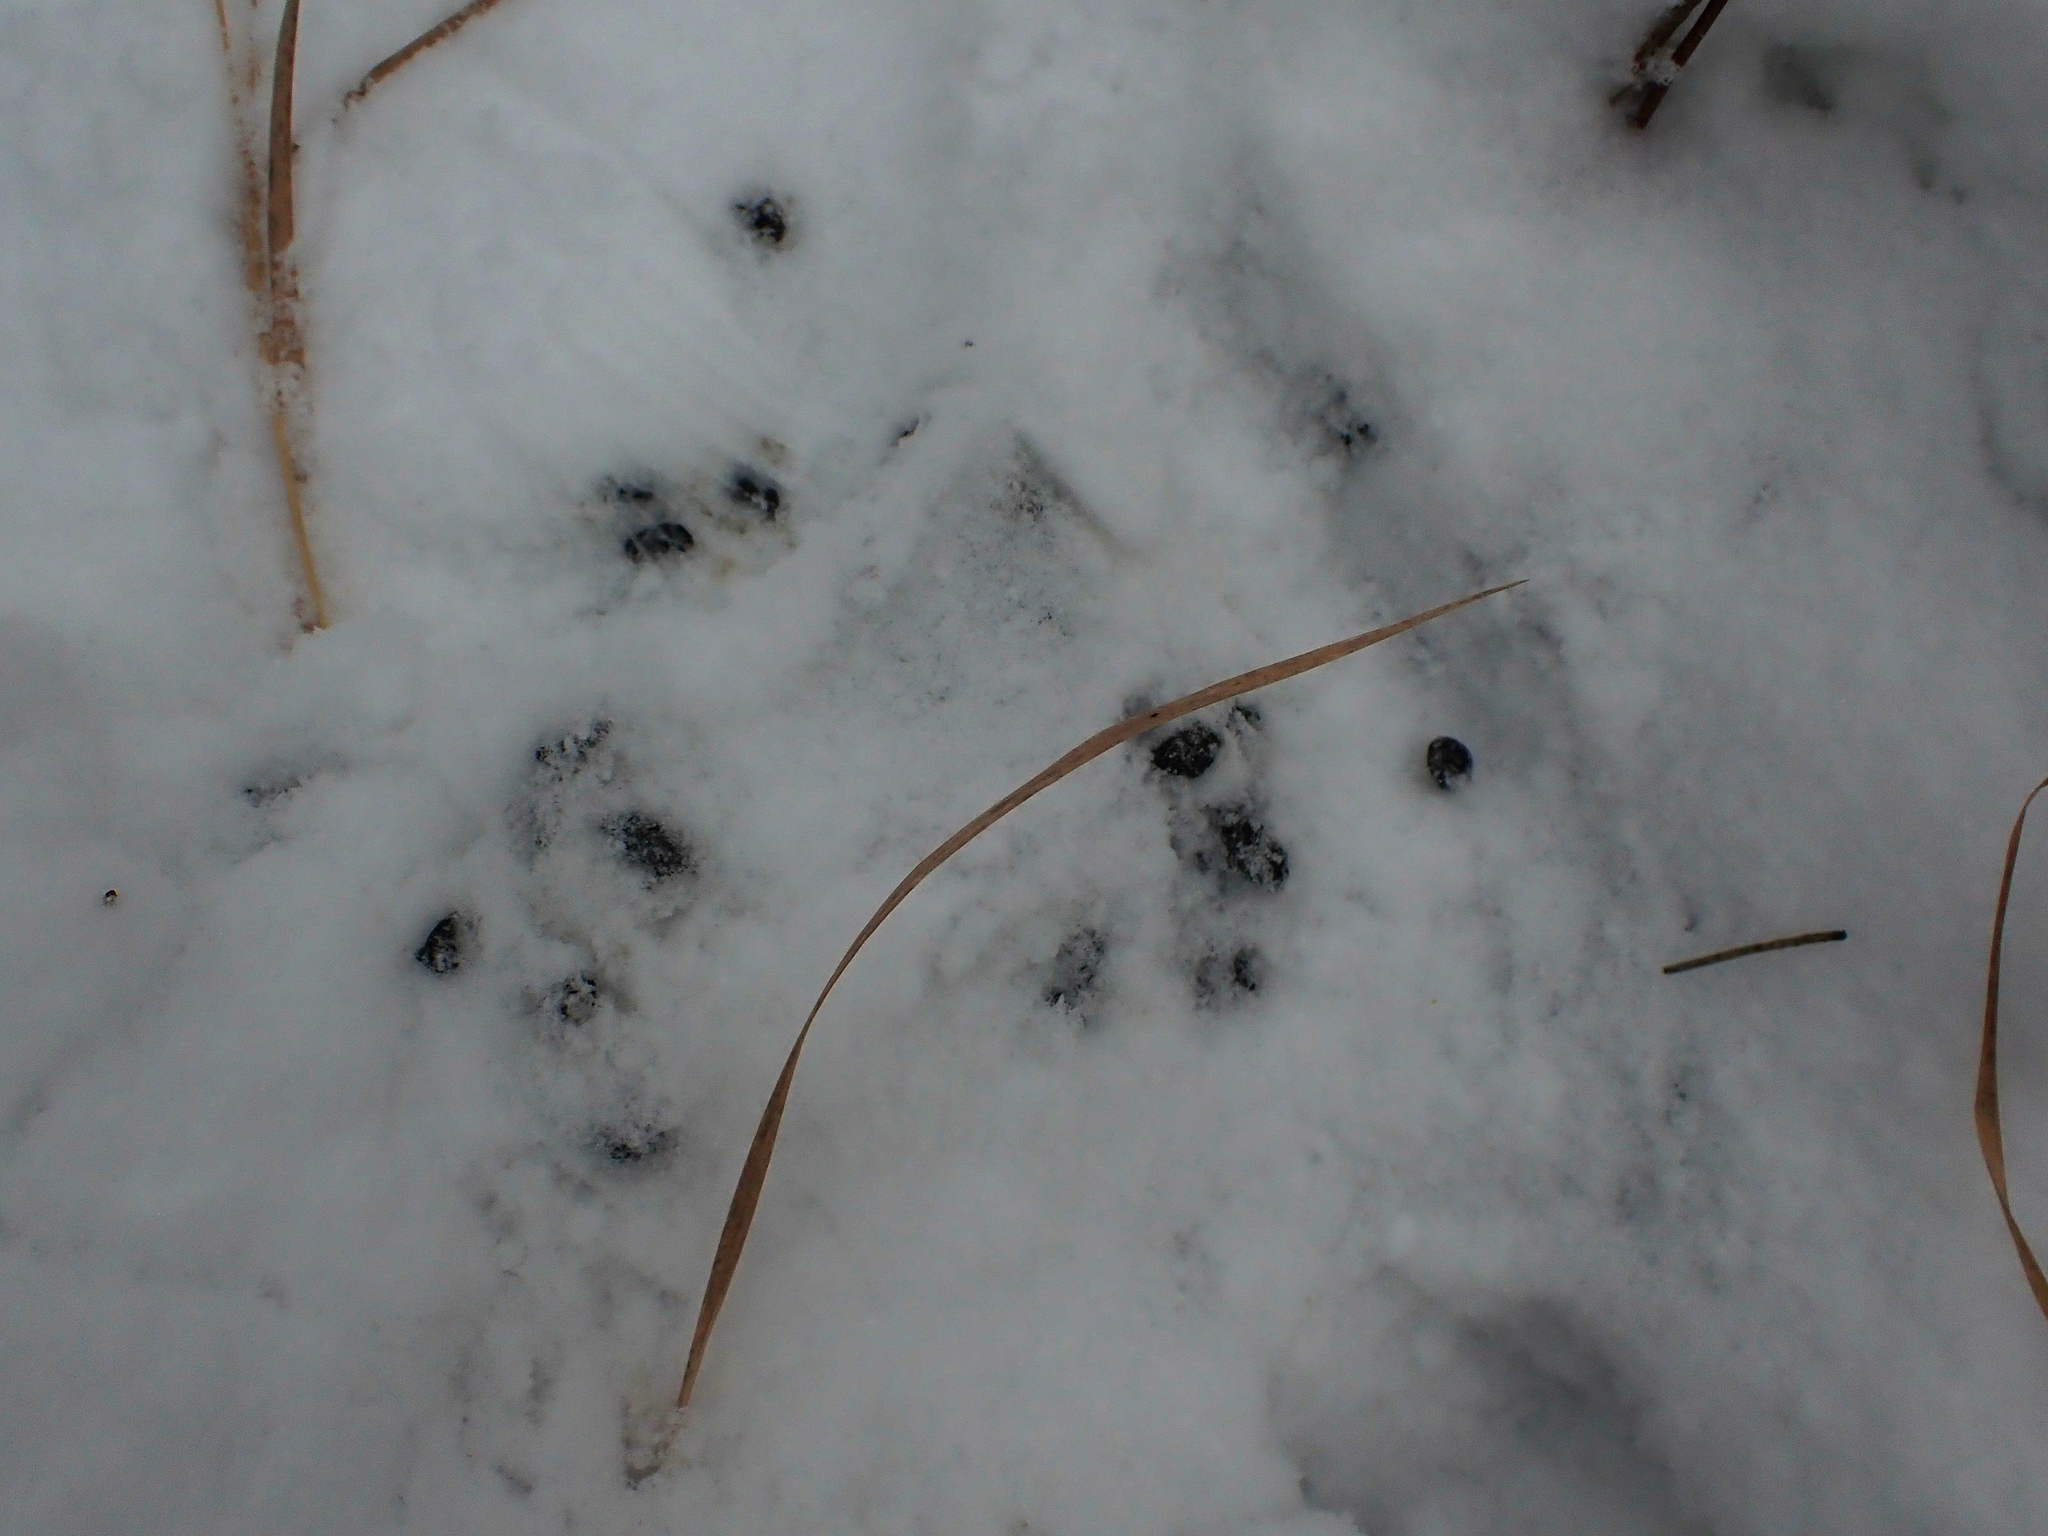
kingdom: Animalia
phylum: Chordata
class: Mammalia
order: Artiodactyla
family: Cervidae
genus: Odocoileus
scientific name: Odocoileus virginianus
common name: White-tailed deer
